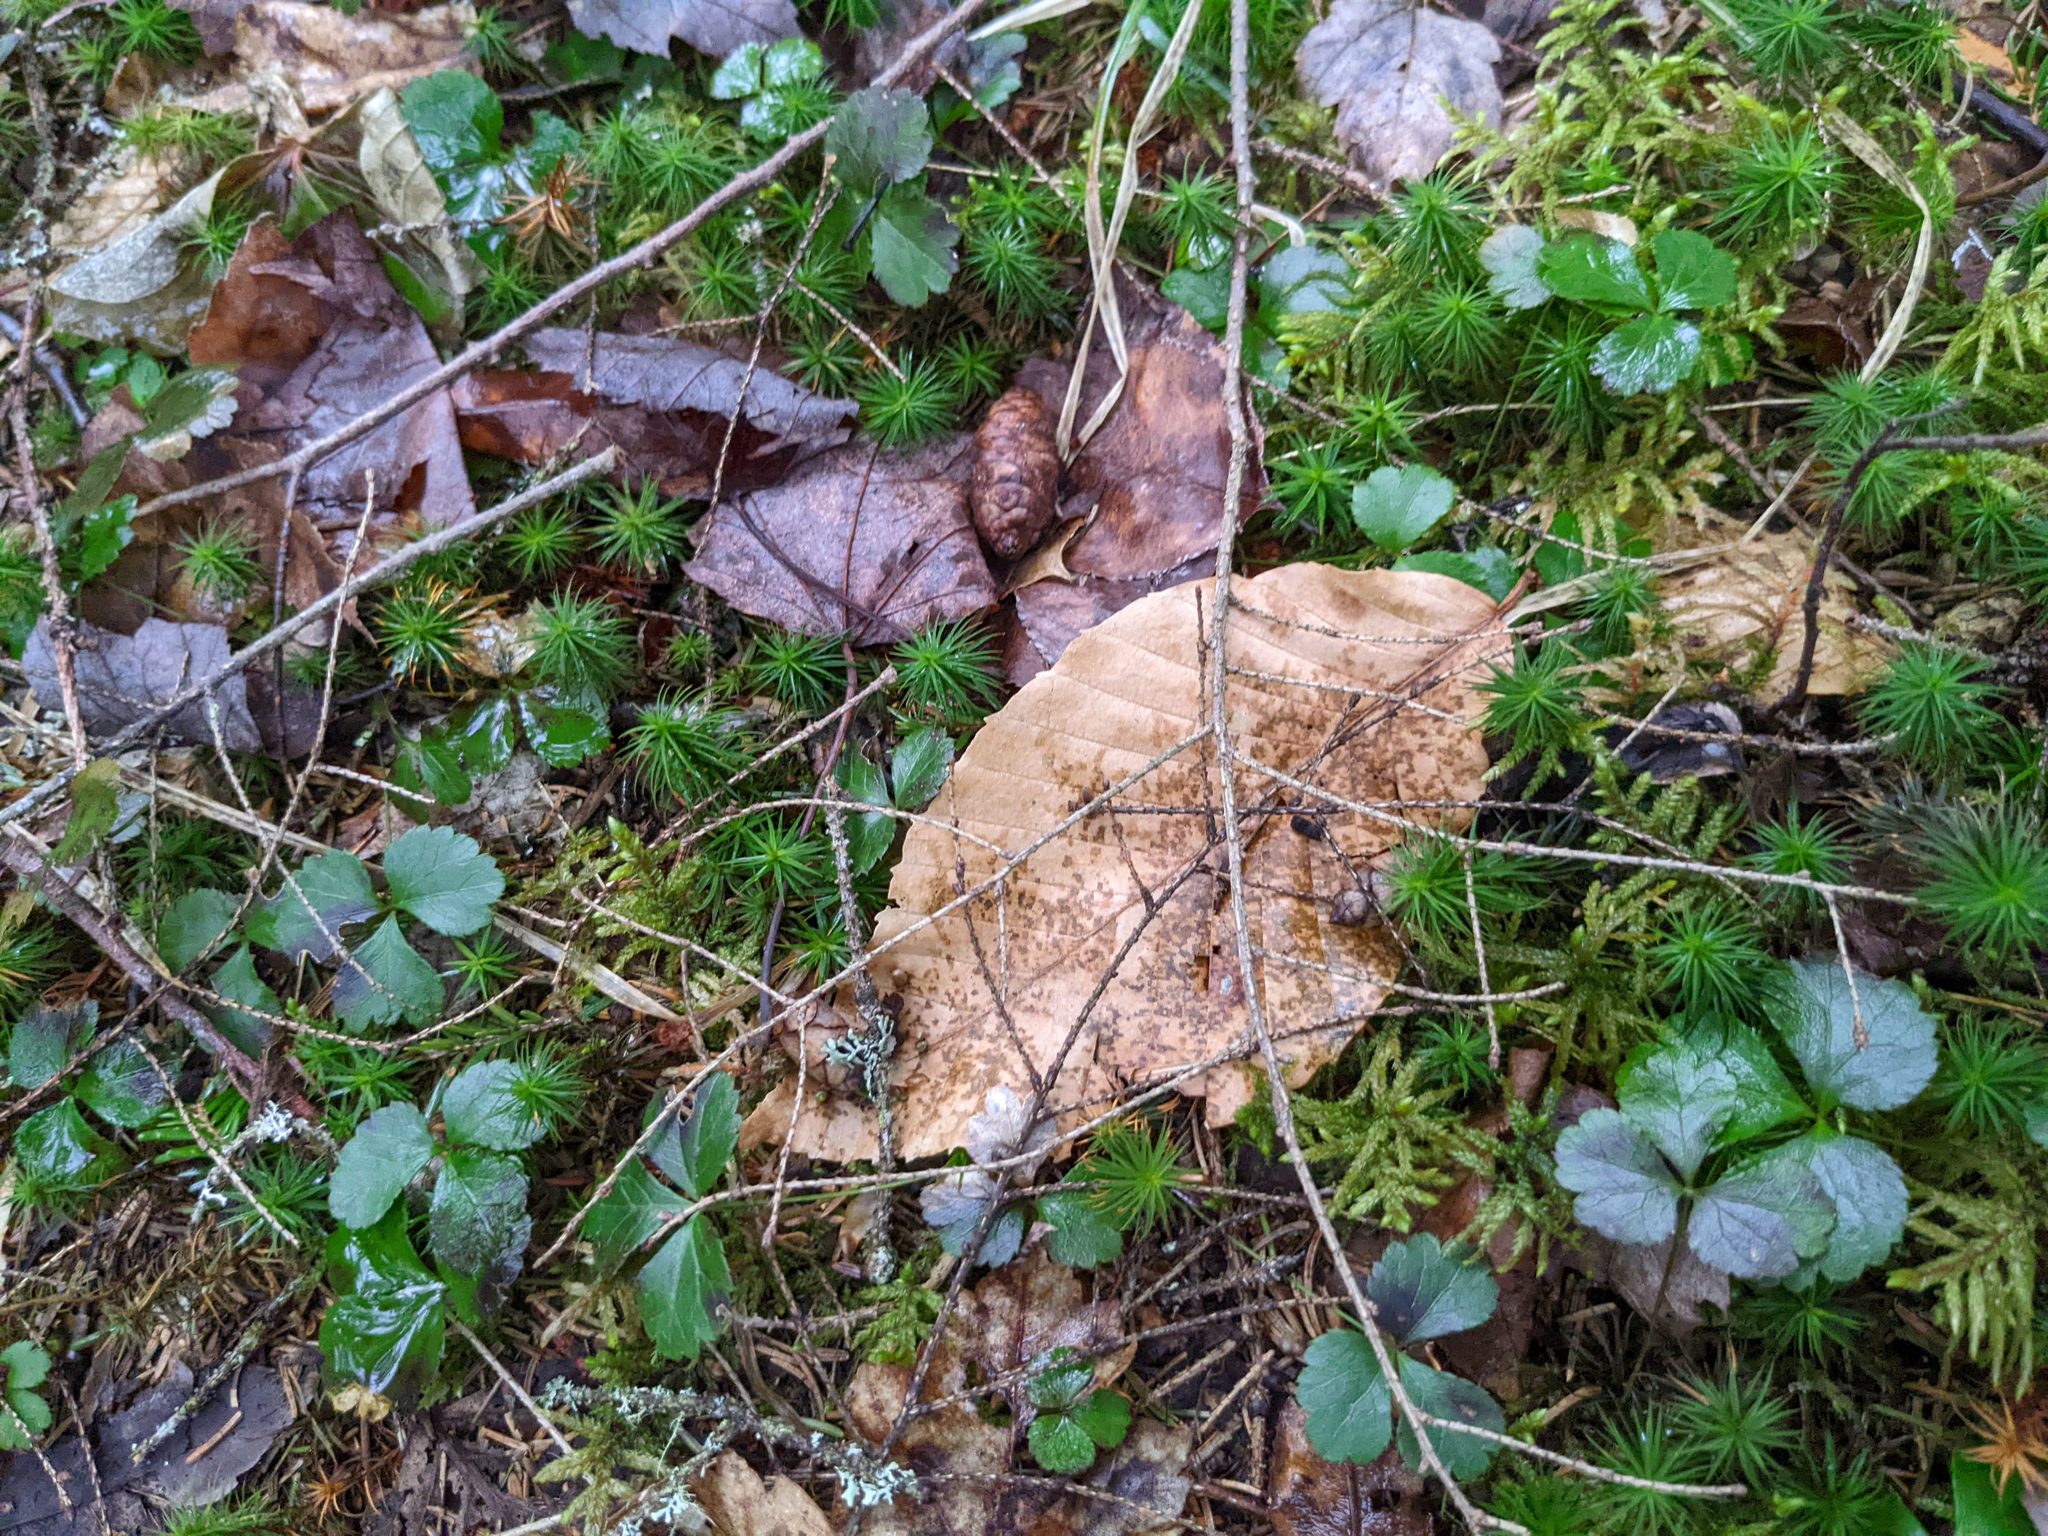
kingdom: Plantae
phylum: Tracheophyta
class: Magnoliopsida
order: Fagales
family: Fagaceae
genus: Fagus
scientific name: Fagus grandifolia
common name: American beech
